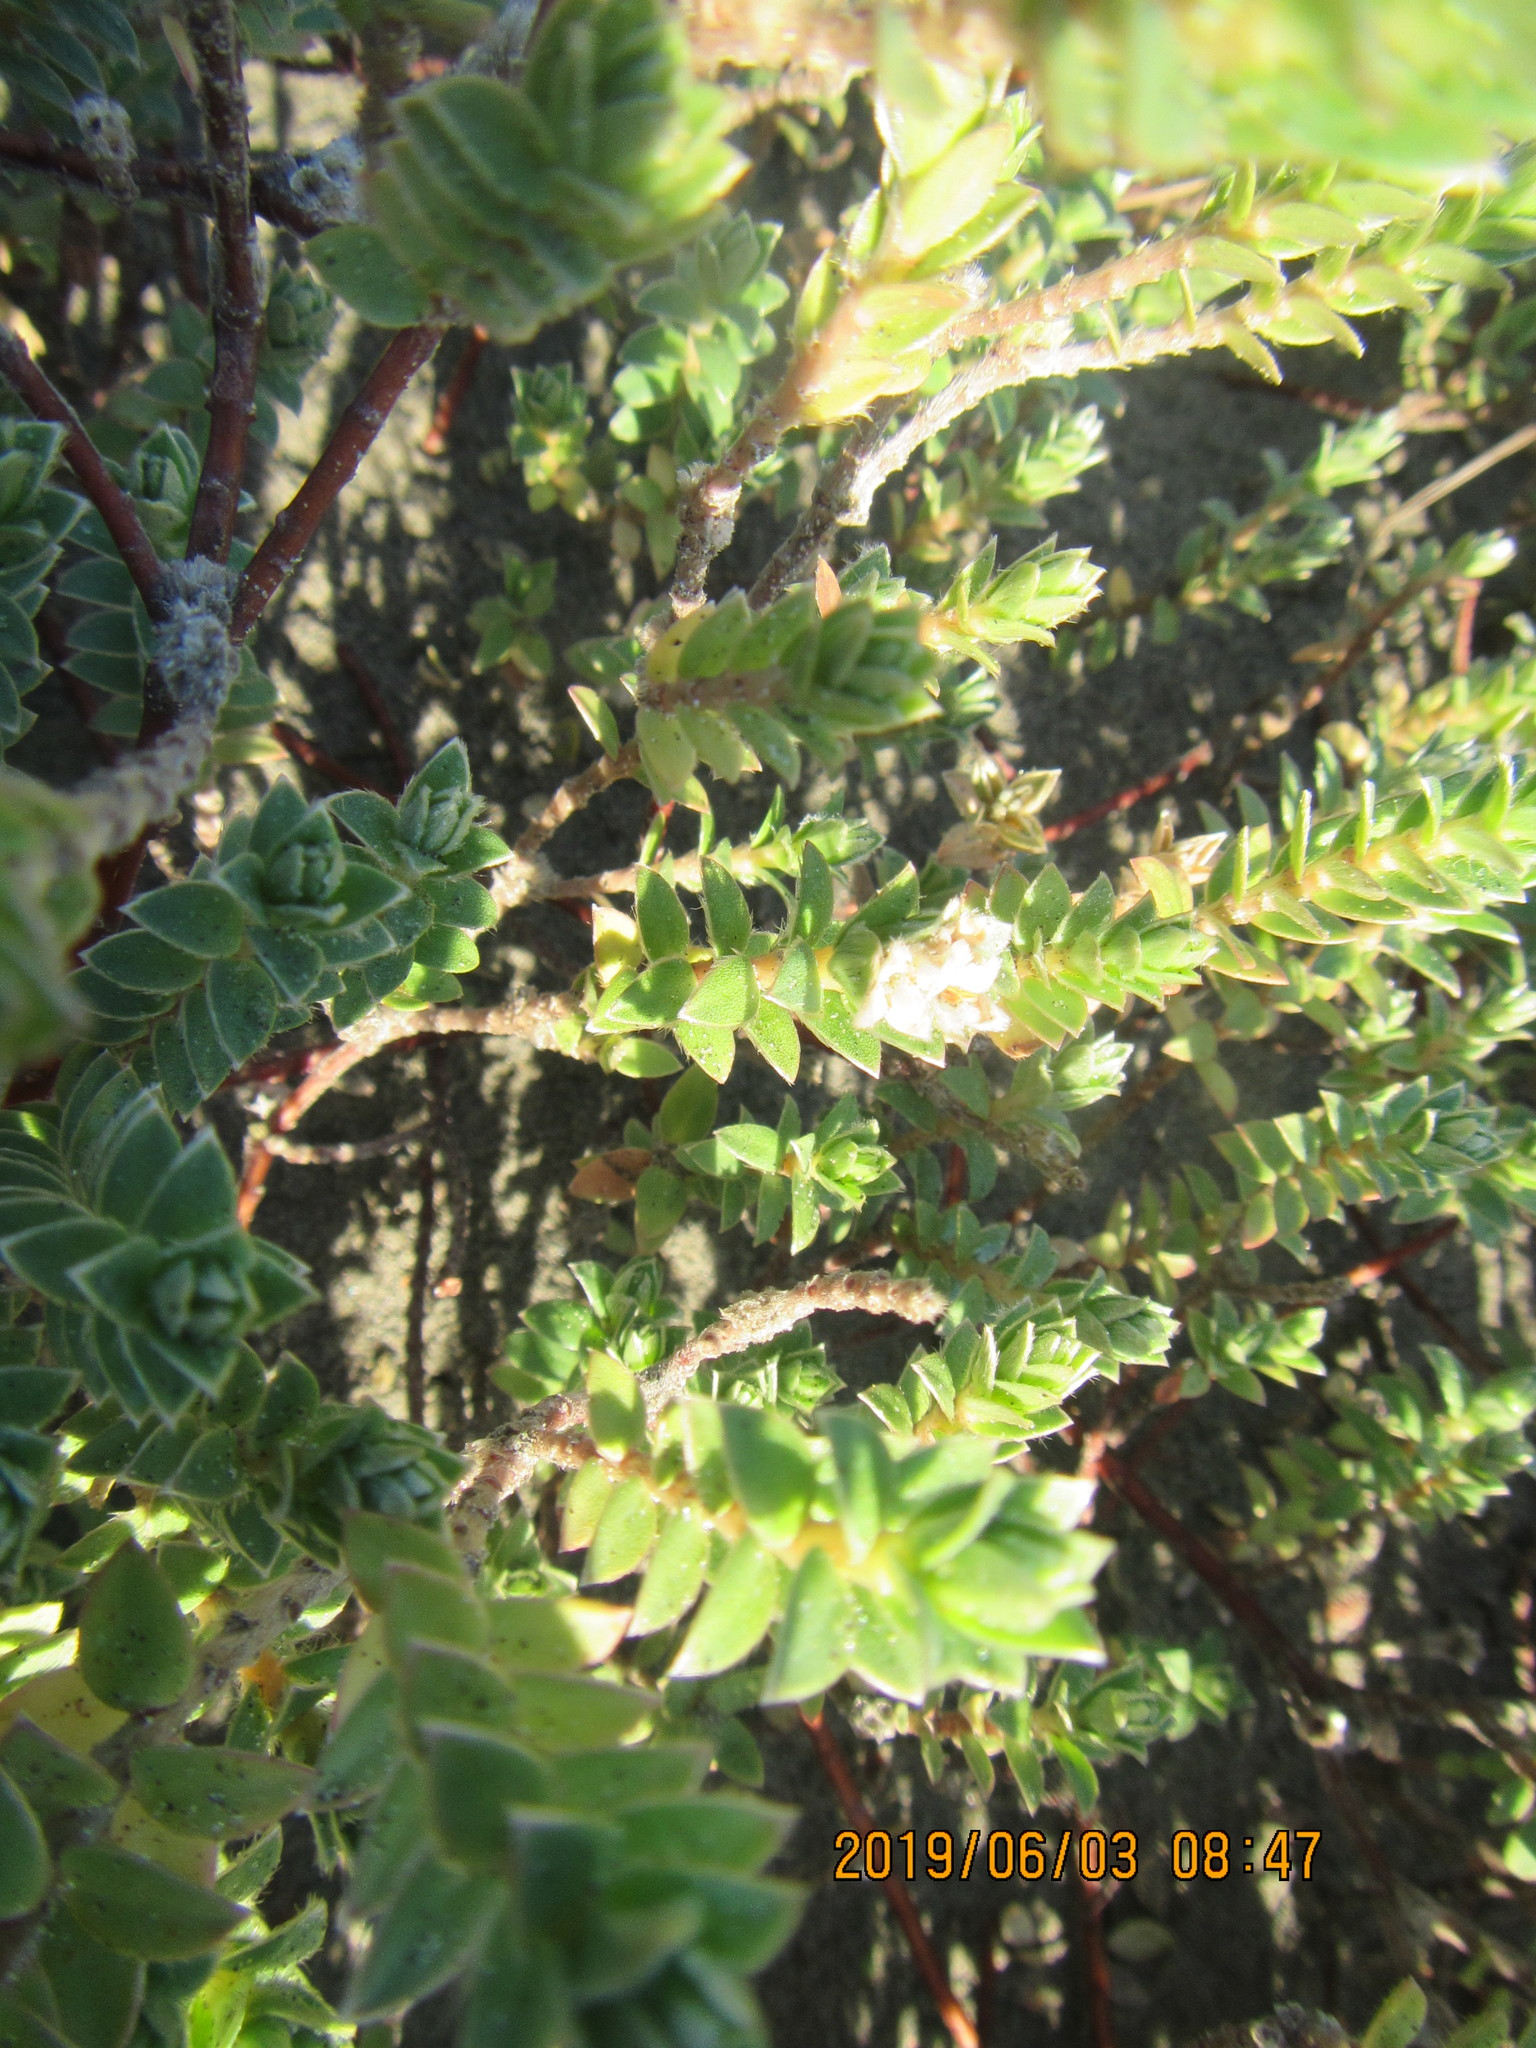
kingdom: Plantae
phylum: Tracheophyta
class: Magnoliopsida
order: Malvales
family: Thymelaeaceae
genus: Pimelea
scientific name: Pimelea villosa
